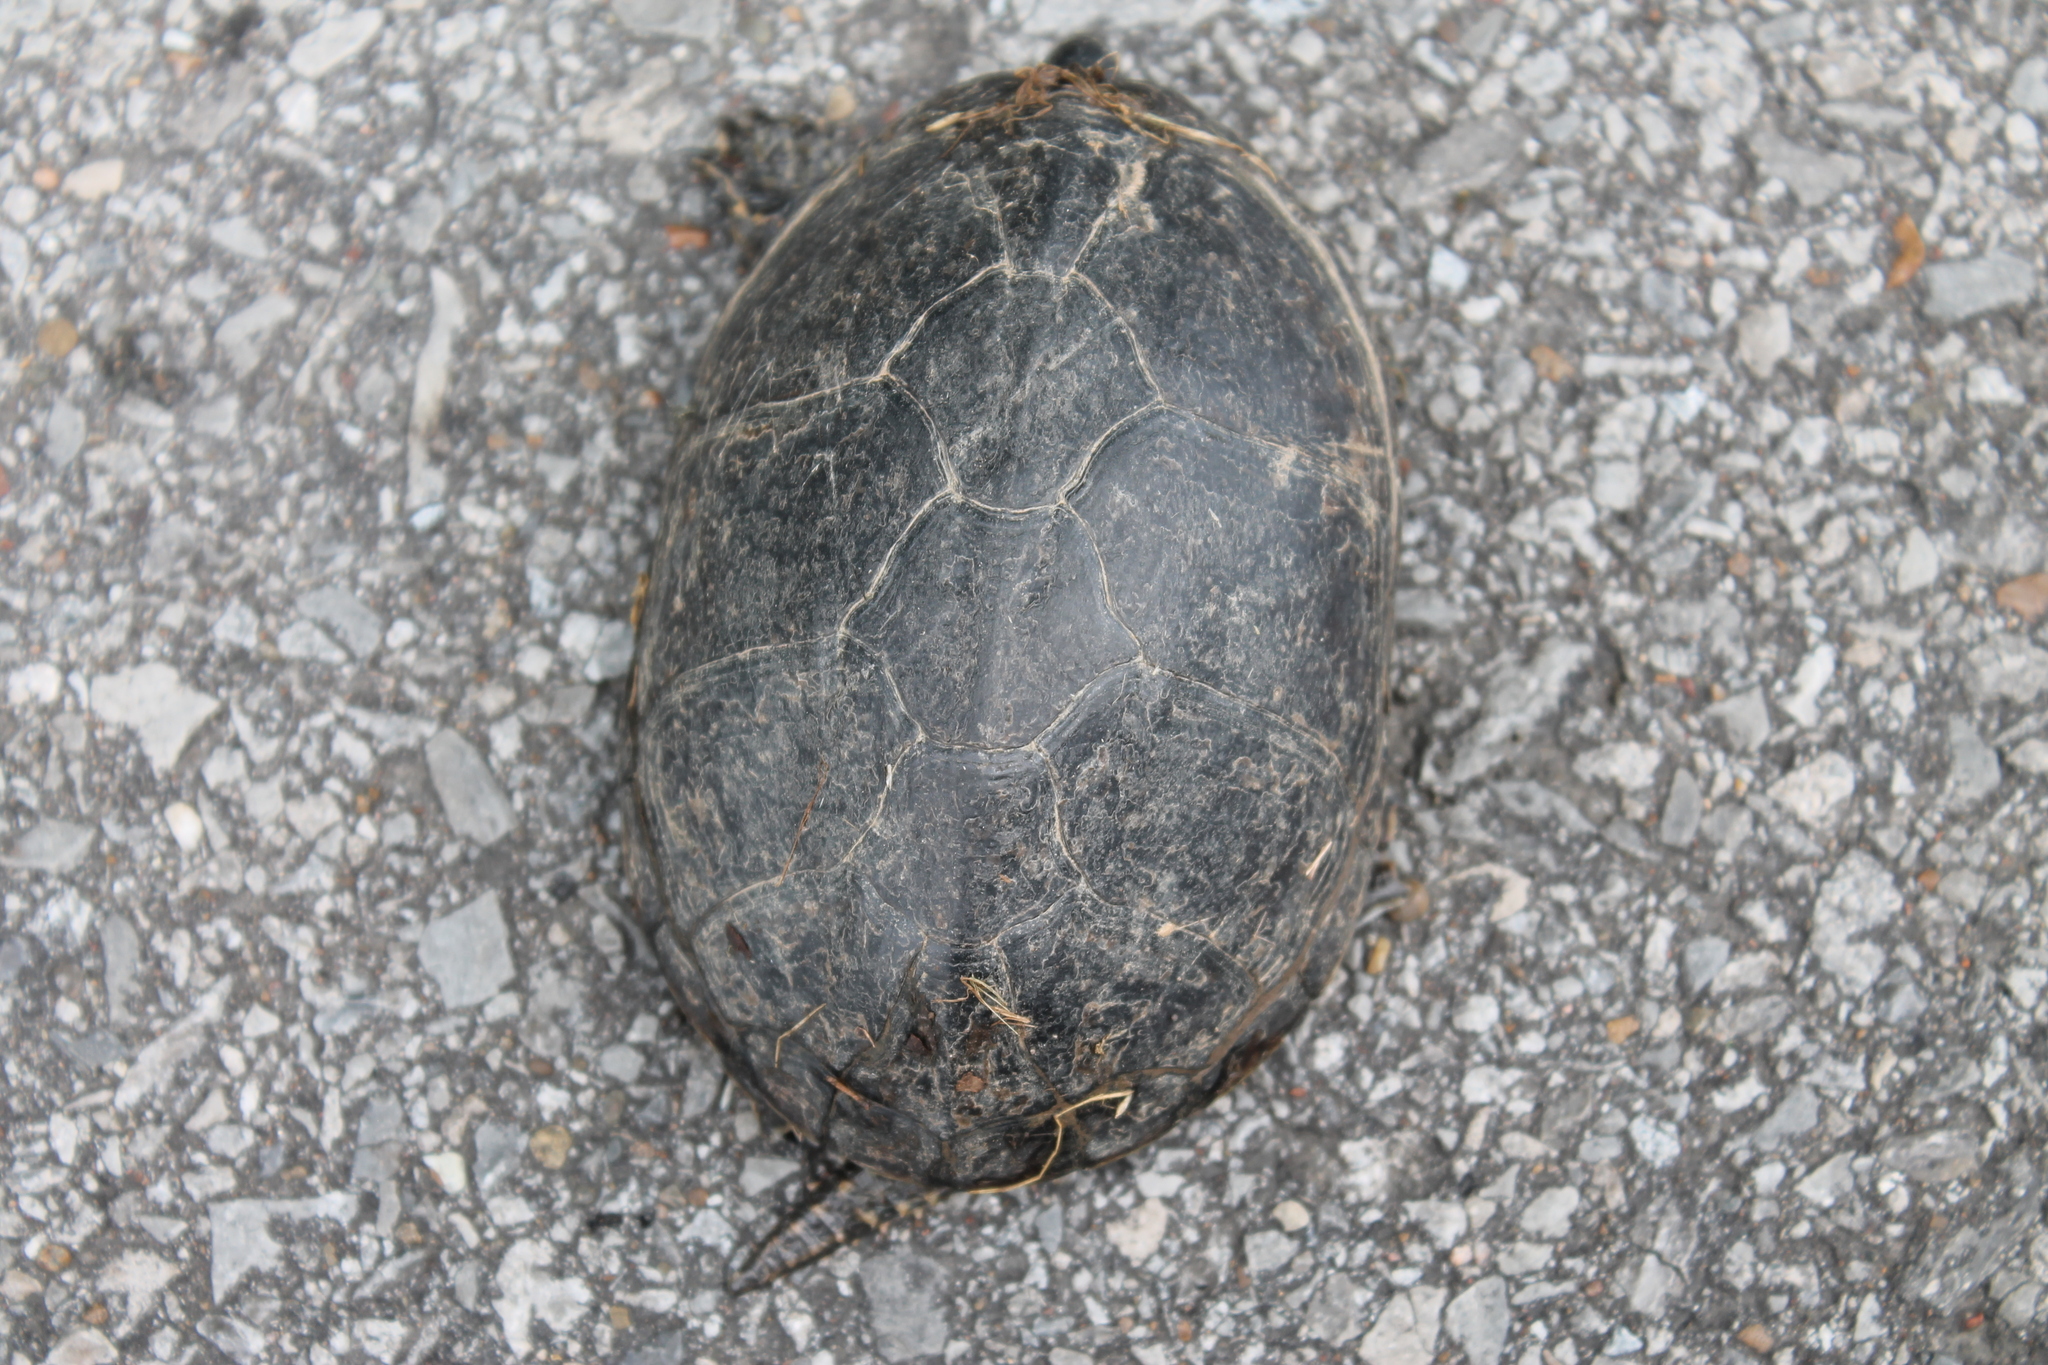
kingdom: Animalia
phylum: Chordata
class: Testudines
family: Kinosternidae
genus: Sternotherus
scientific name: Sternotherus odoratus
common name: Common musk turtle
